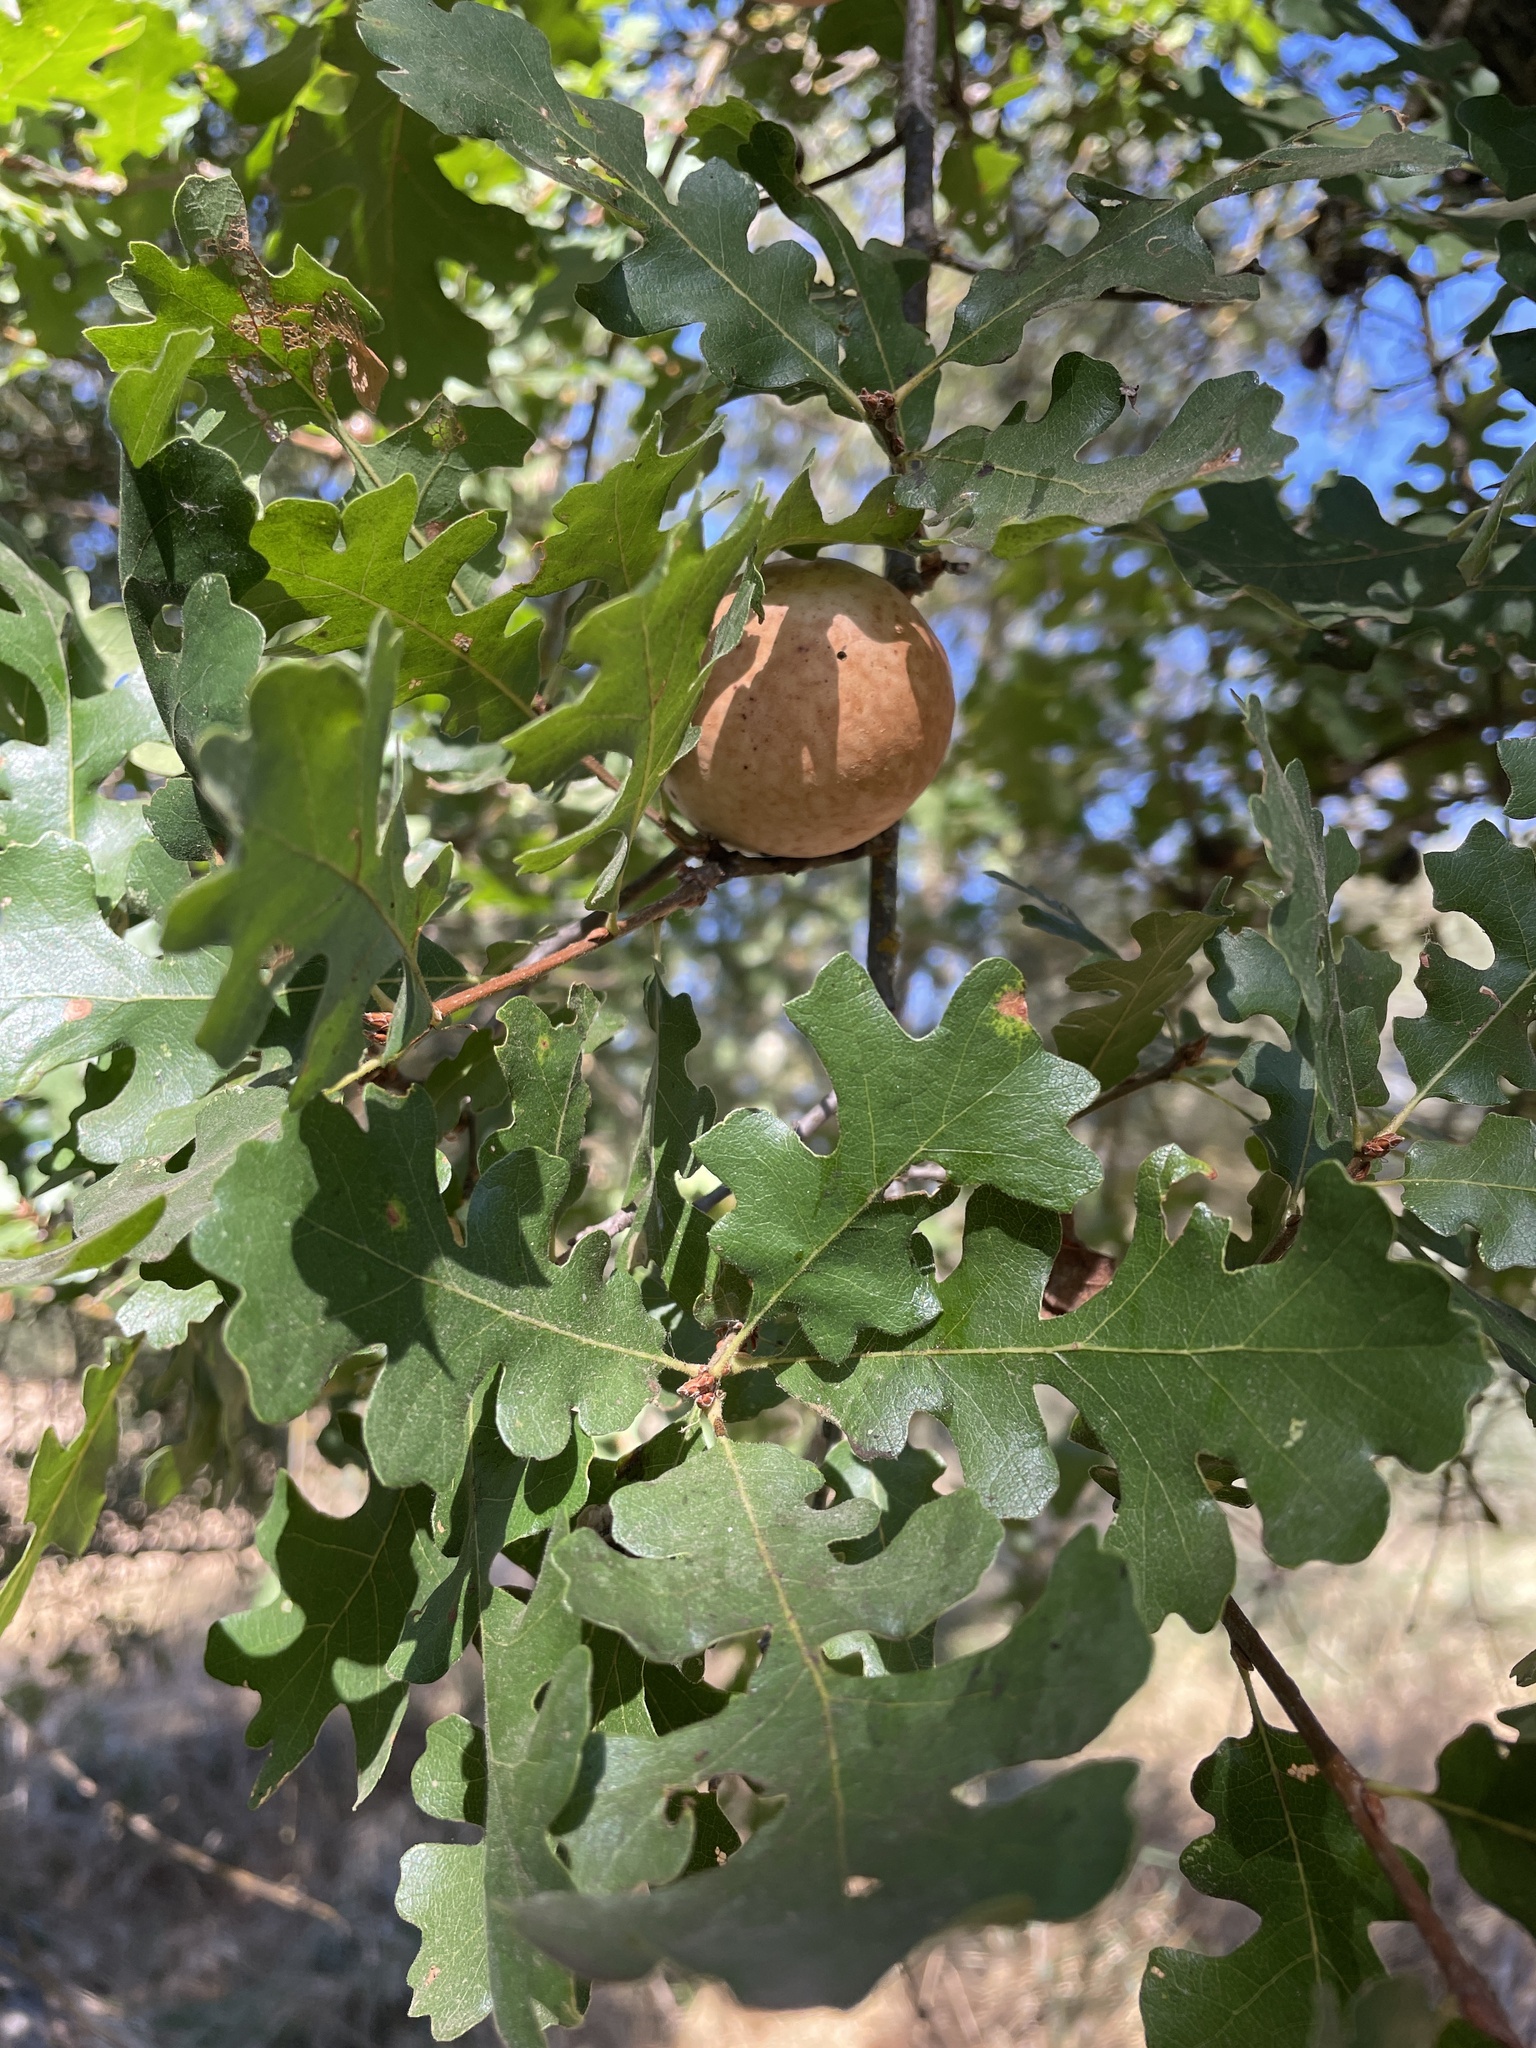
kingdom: Animalia
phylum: Arthropoda
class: Insecta
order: Hymenoptera
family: Cynipidae
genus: Andricus
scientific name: Andricus quercuscalifornicus
